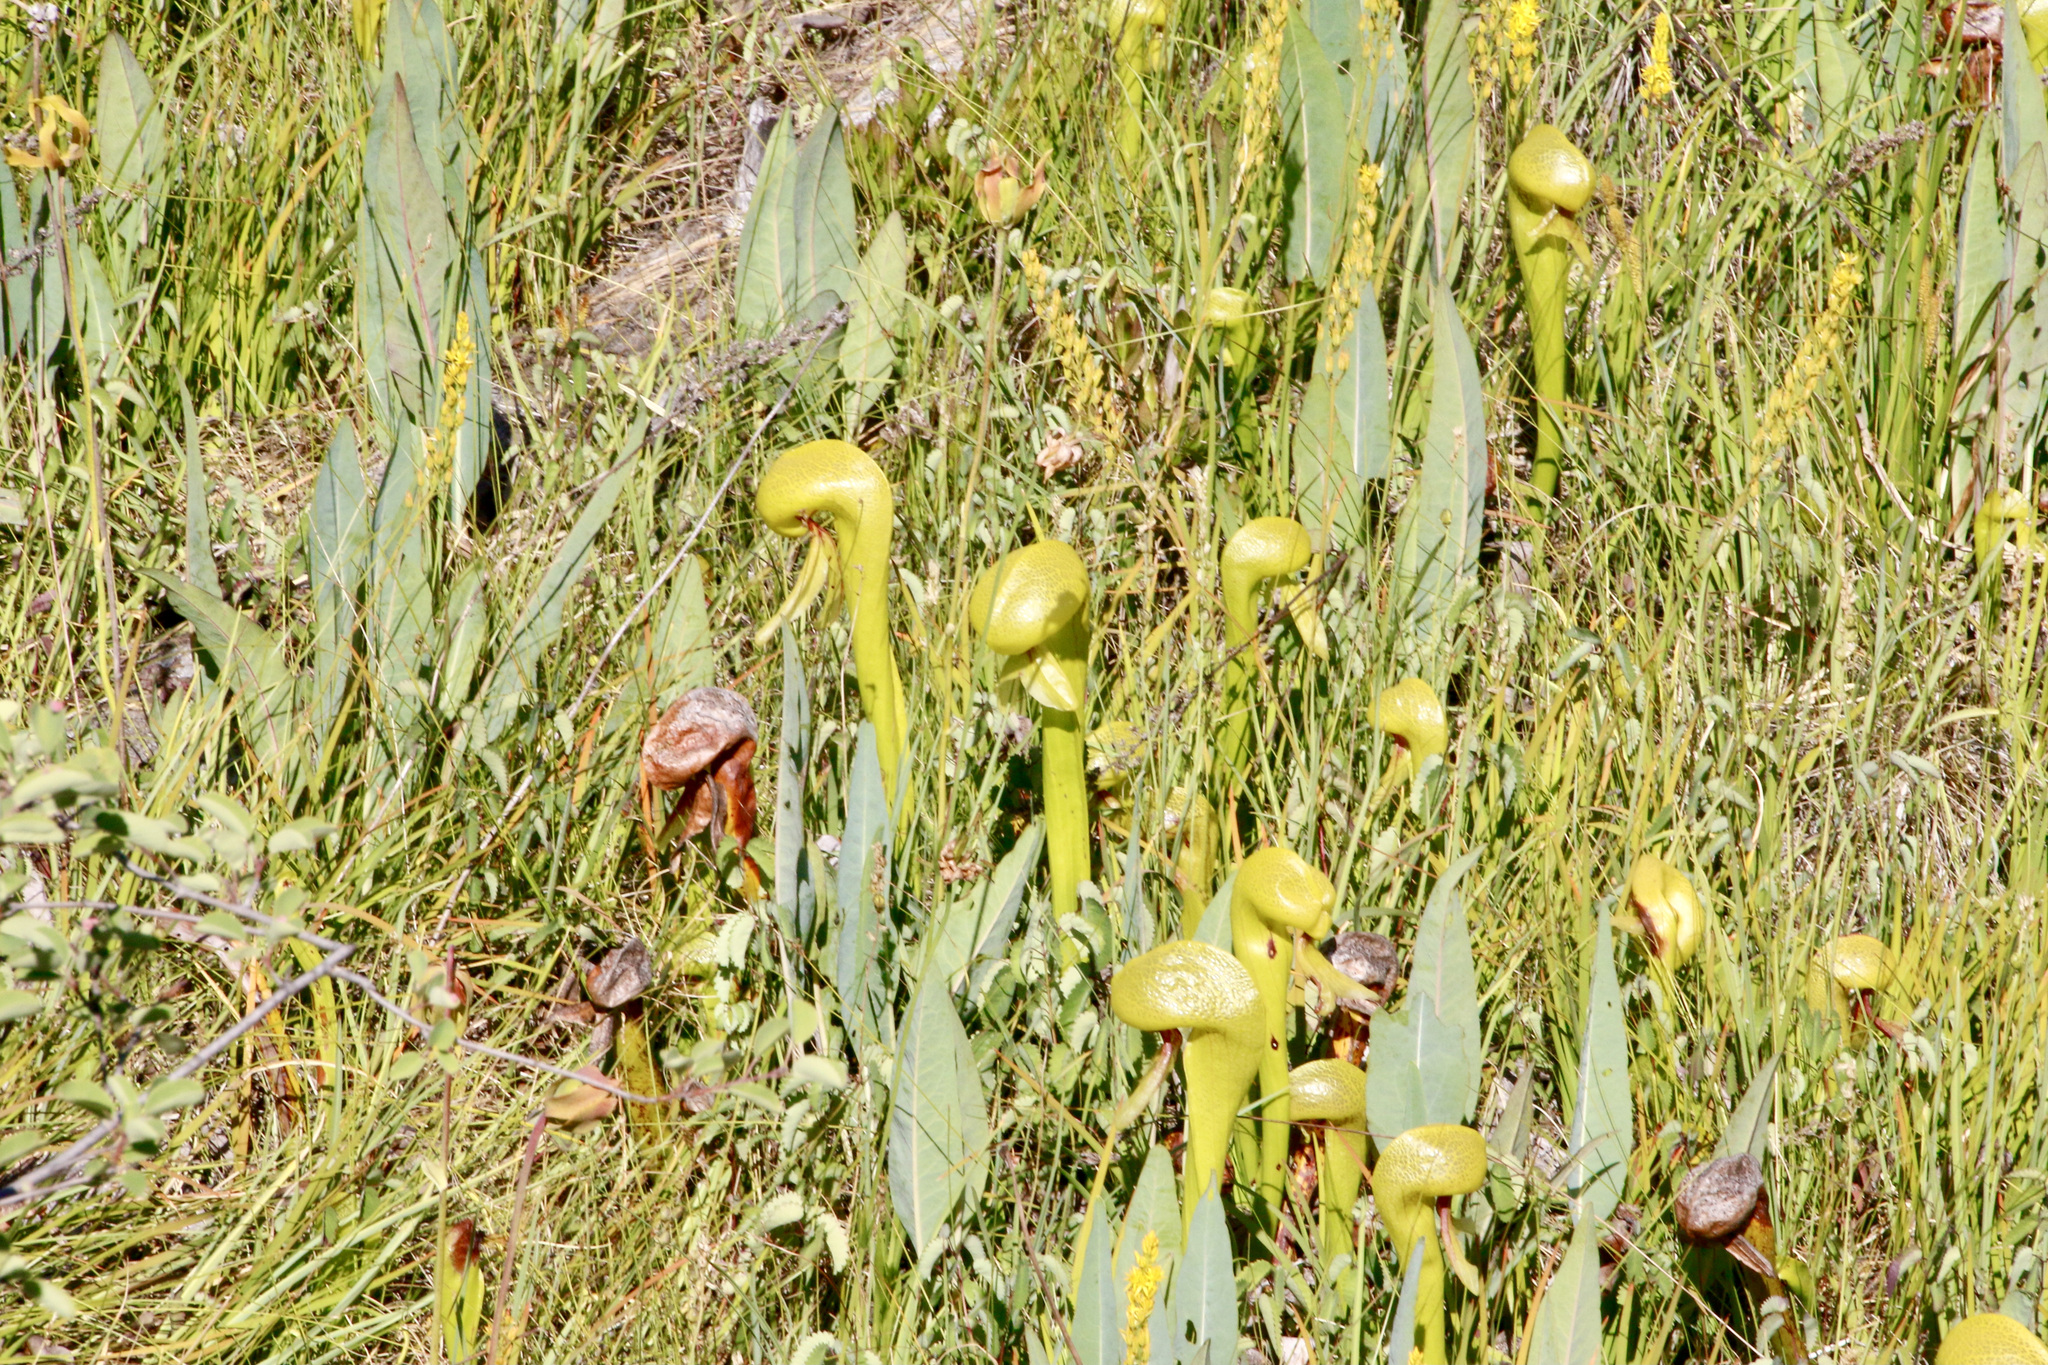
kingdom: Plantae
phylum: Tracheophyta
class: Magnoliopsida
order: Ericales
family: Sarraceniaceae
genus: Darlingtonia
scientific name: Darlingtonia californica
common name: California pitcher plant
